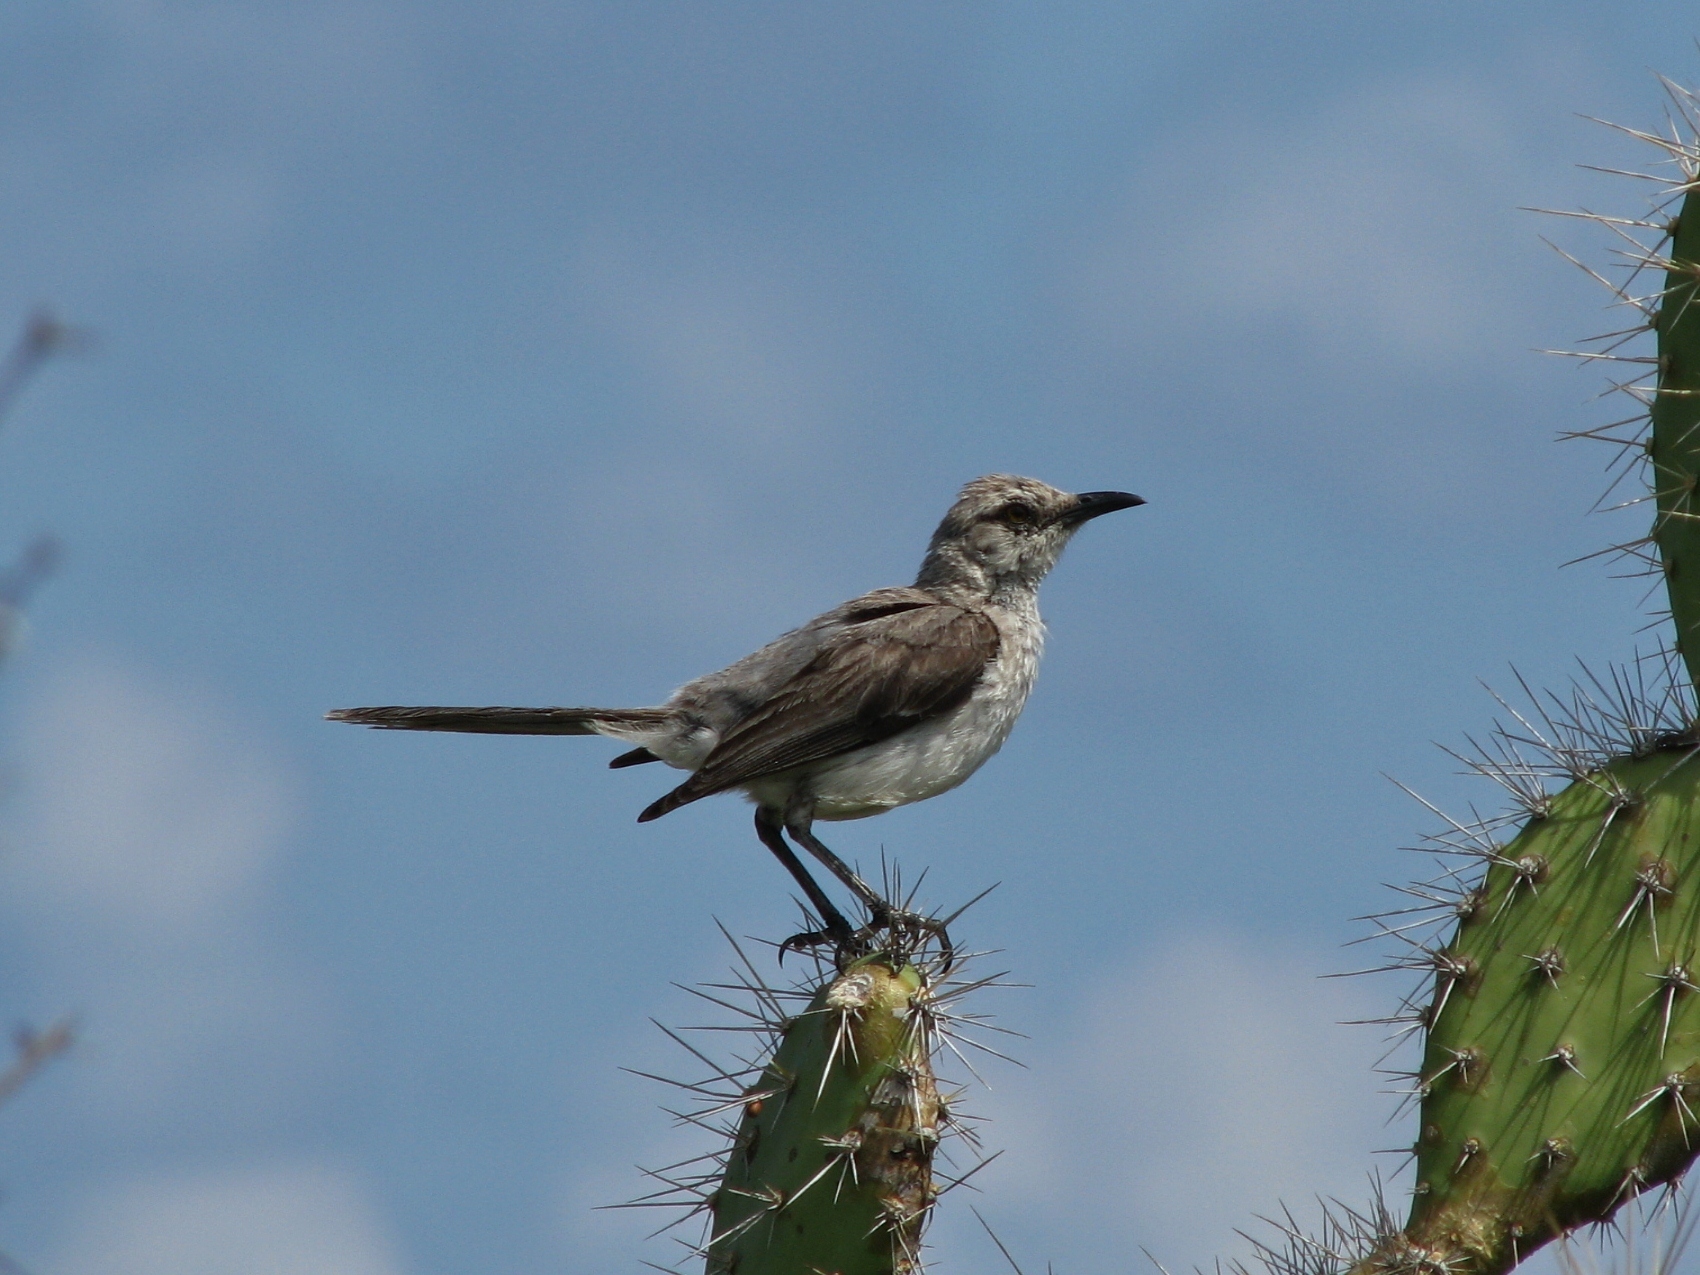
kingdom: Animalia
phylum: Chordata
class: Aves
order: Passeriformes
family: Mimidae
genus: Mimus
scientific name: Mimus gilvus
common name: Tropical mockingbird
